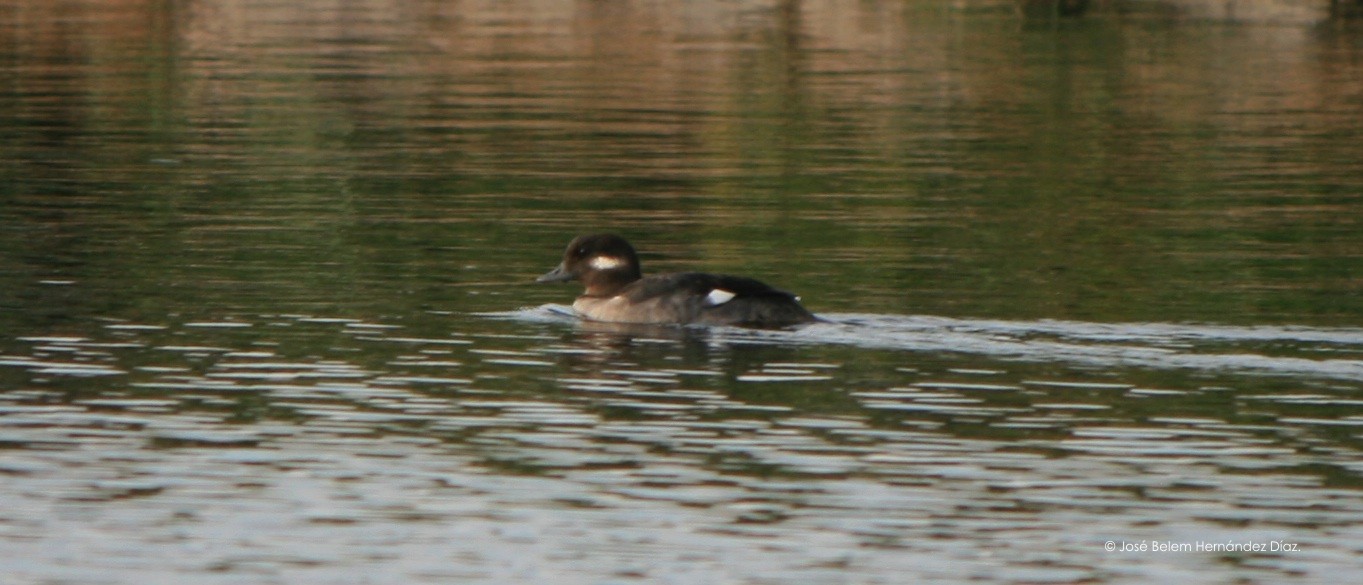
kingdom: Animalia
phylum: Chordata
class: Aves
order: Anseriformes
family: Anatidae
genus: Bucephala
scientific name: Bucephala albeola
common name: Bufflehead
